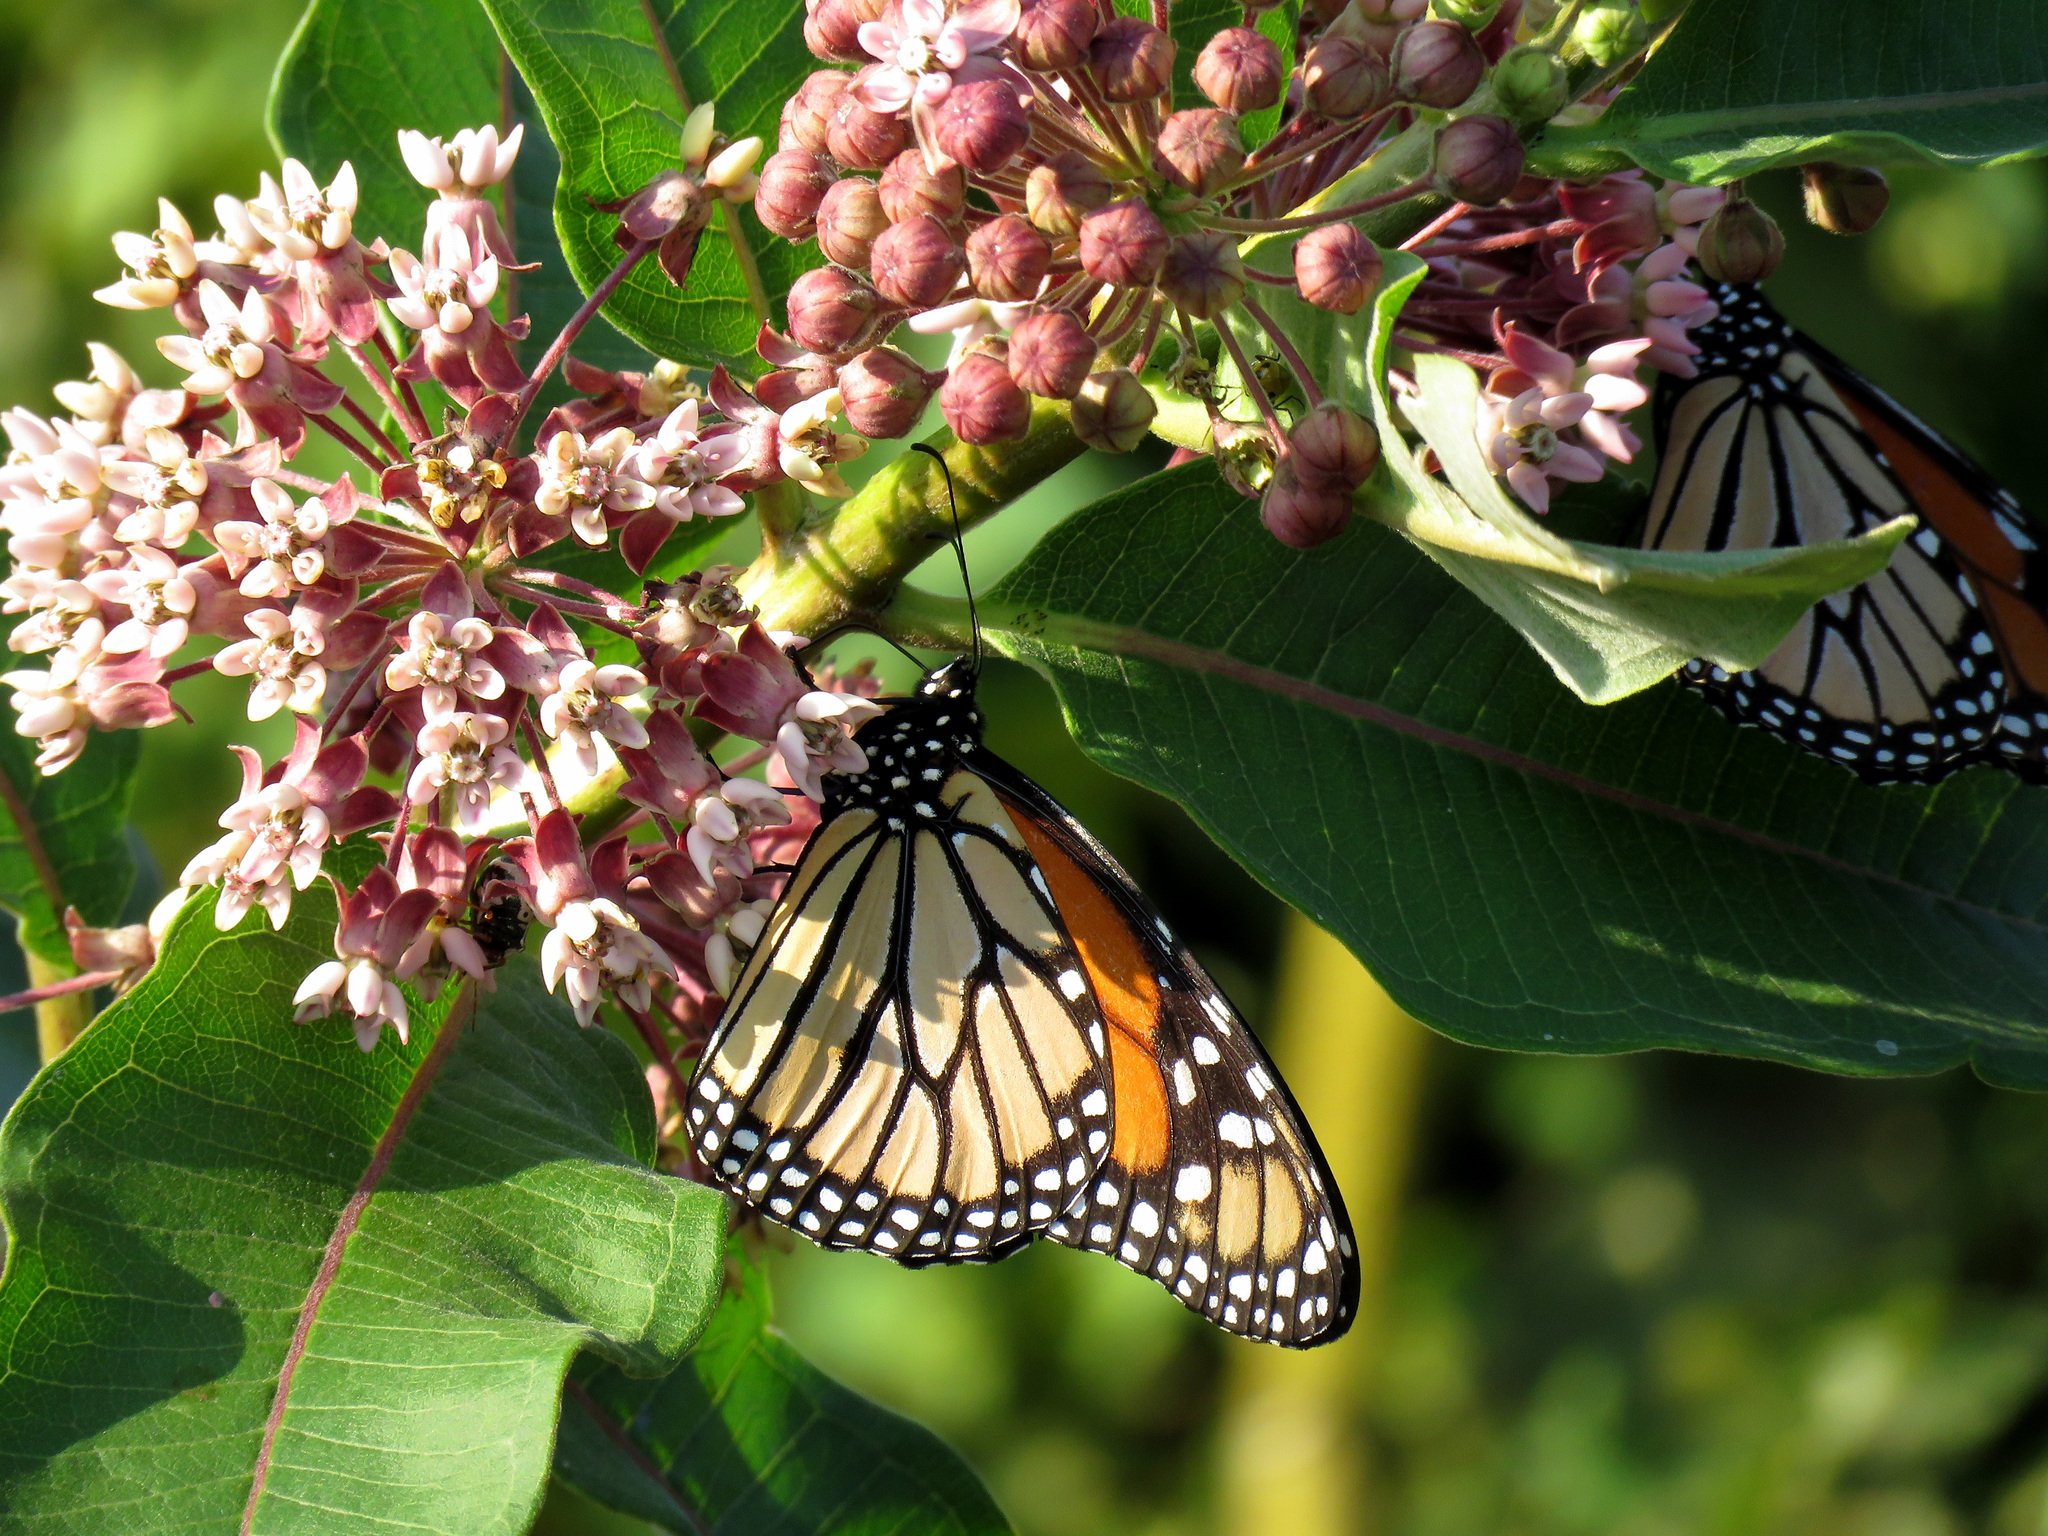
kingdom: Animalia
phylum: Arthropoda
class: Insecta
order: Lepidoptera
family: Nymphalidae
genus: Danaus
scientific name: Danaus plexippus
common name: Monarch
